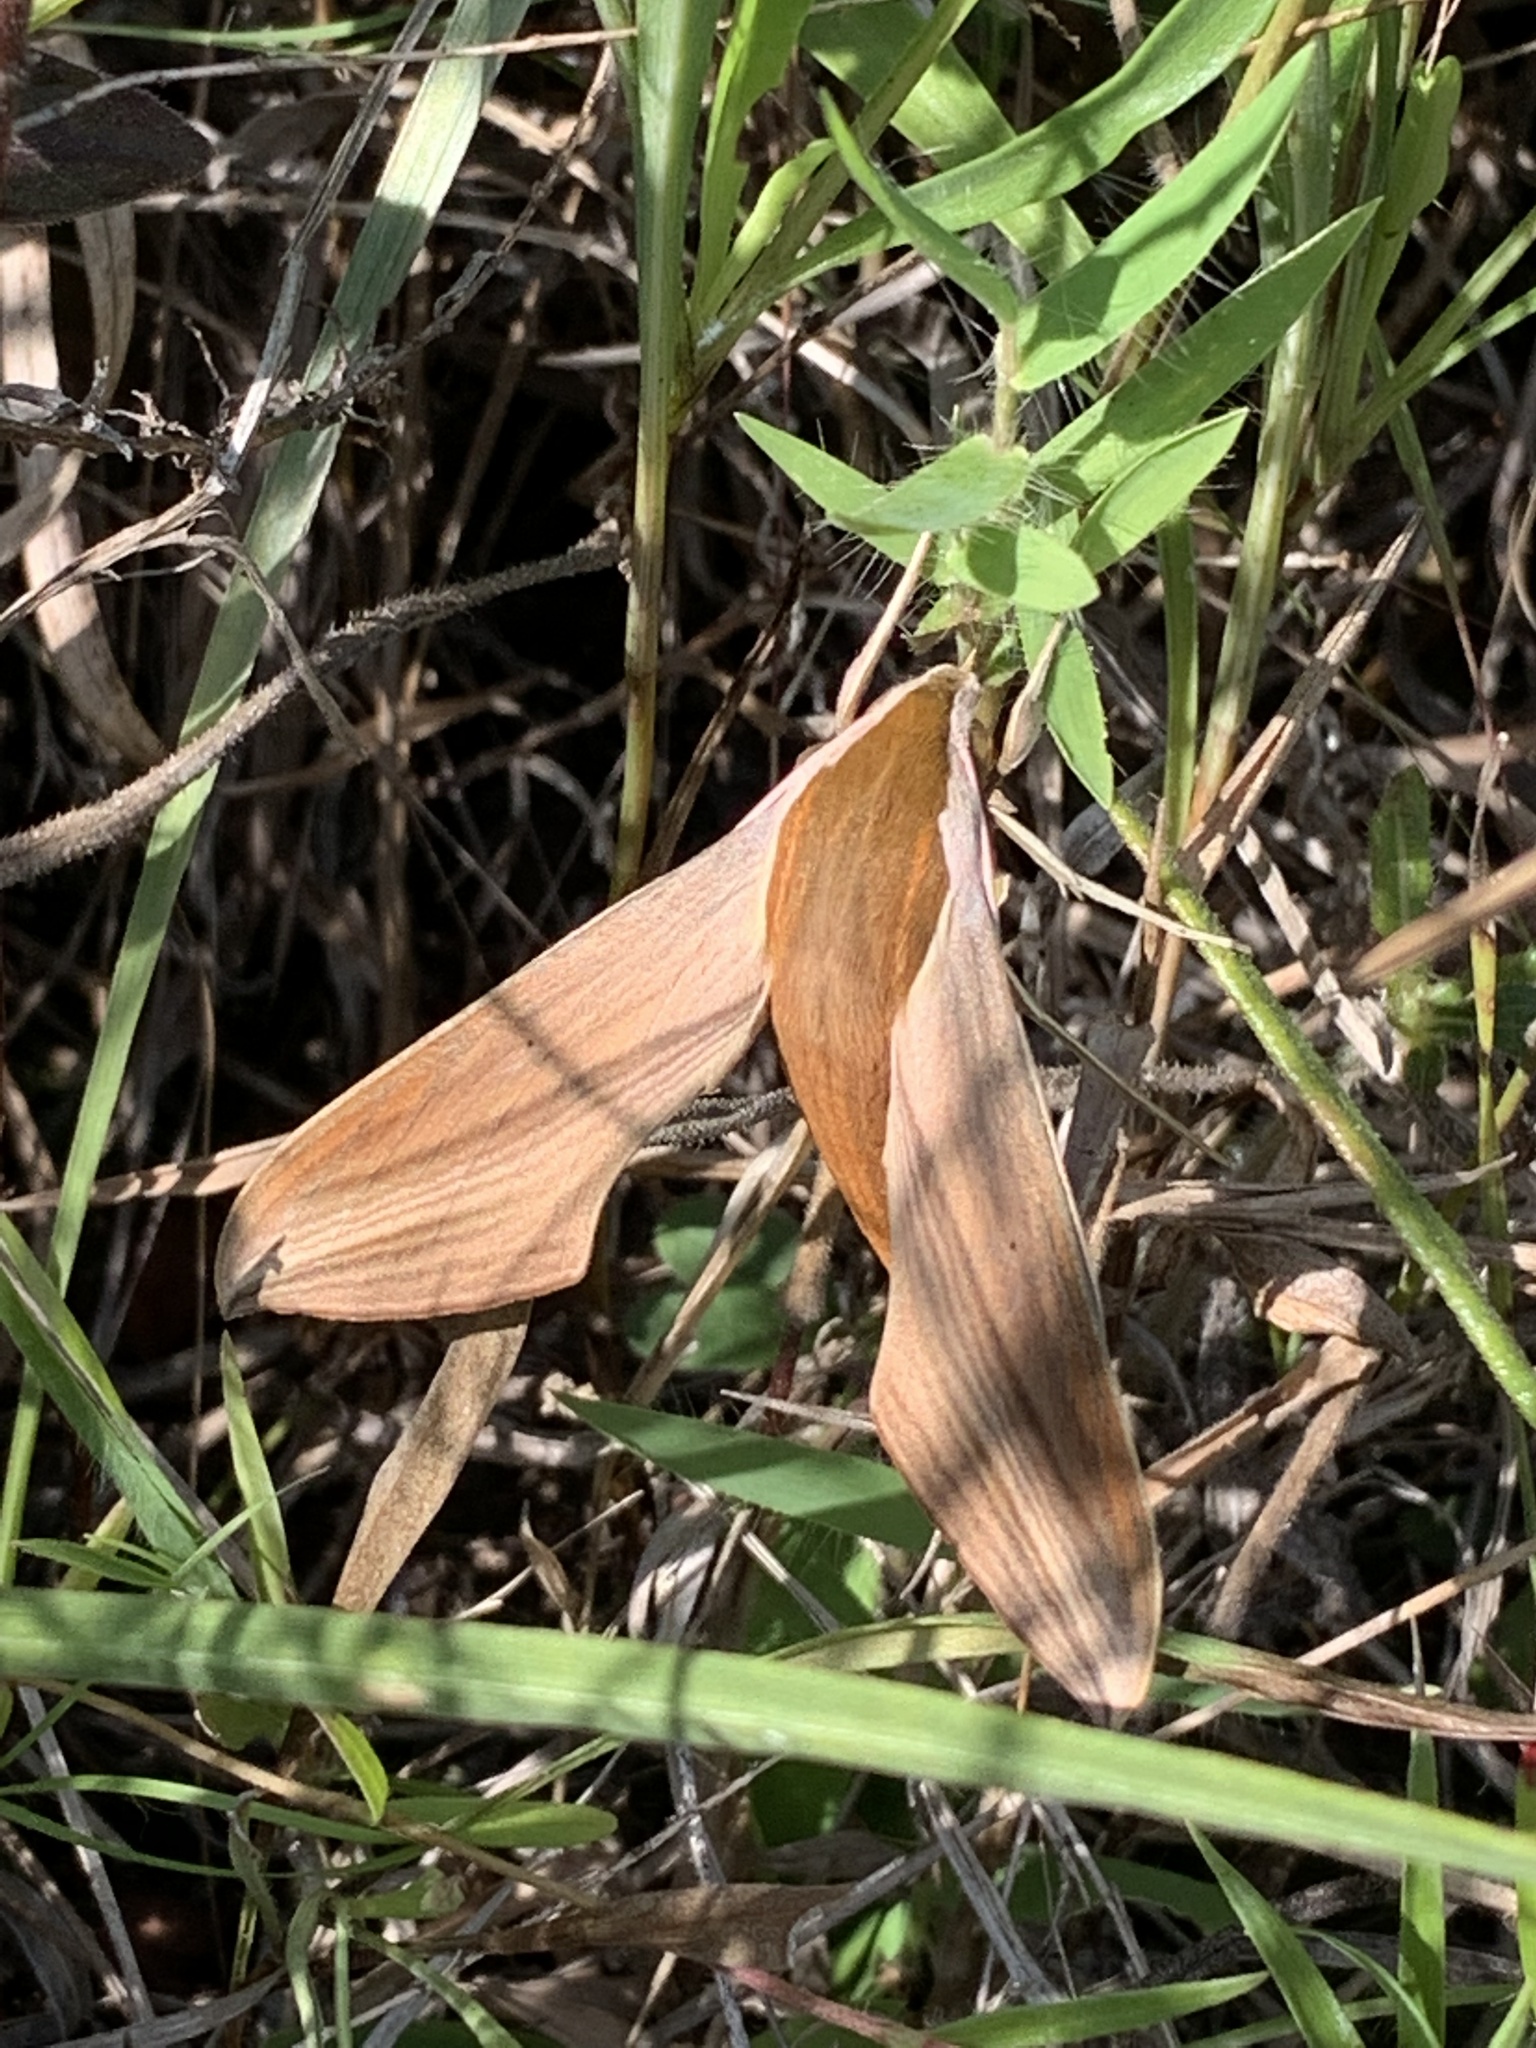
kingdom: Animalia
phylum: Arthropoda
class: Insecta
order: Lepidoptera
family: Sphingidae
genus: Xylophanes
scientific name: Xylophanes tersa
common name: Tersa sphinx
